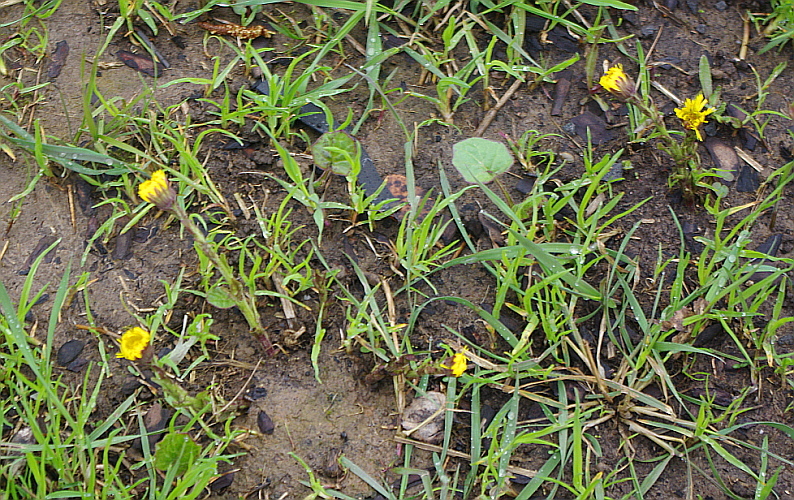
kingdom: Plantae
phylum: Tracheophyta
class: Magnoliopsida
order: Asterales
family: Asteraceae
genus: Tussilago
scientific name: Tussilago farfara
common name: Coltsfoot
